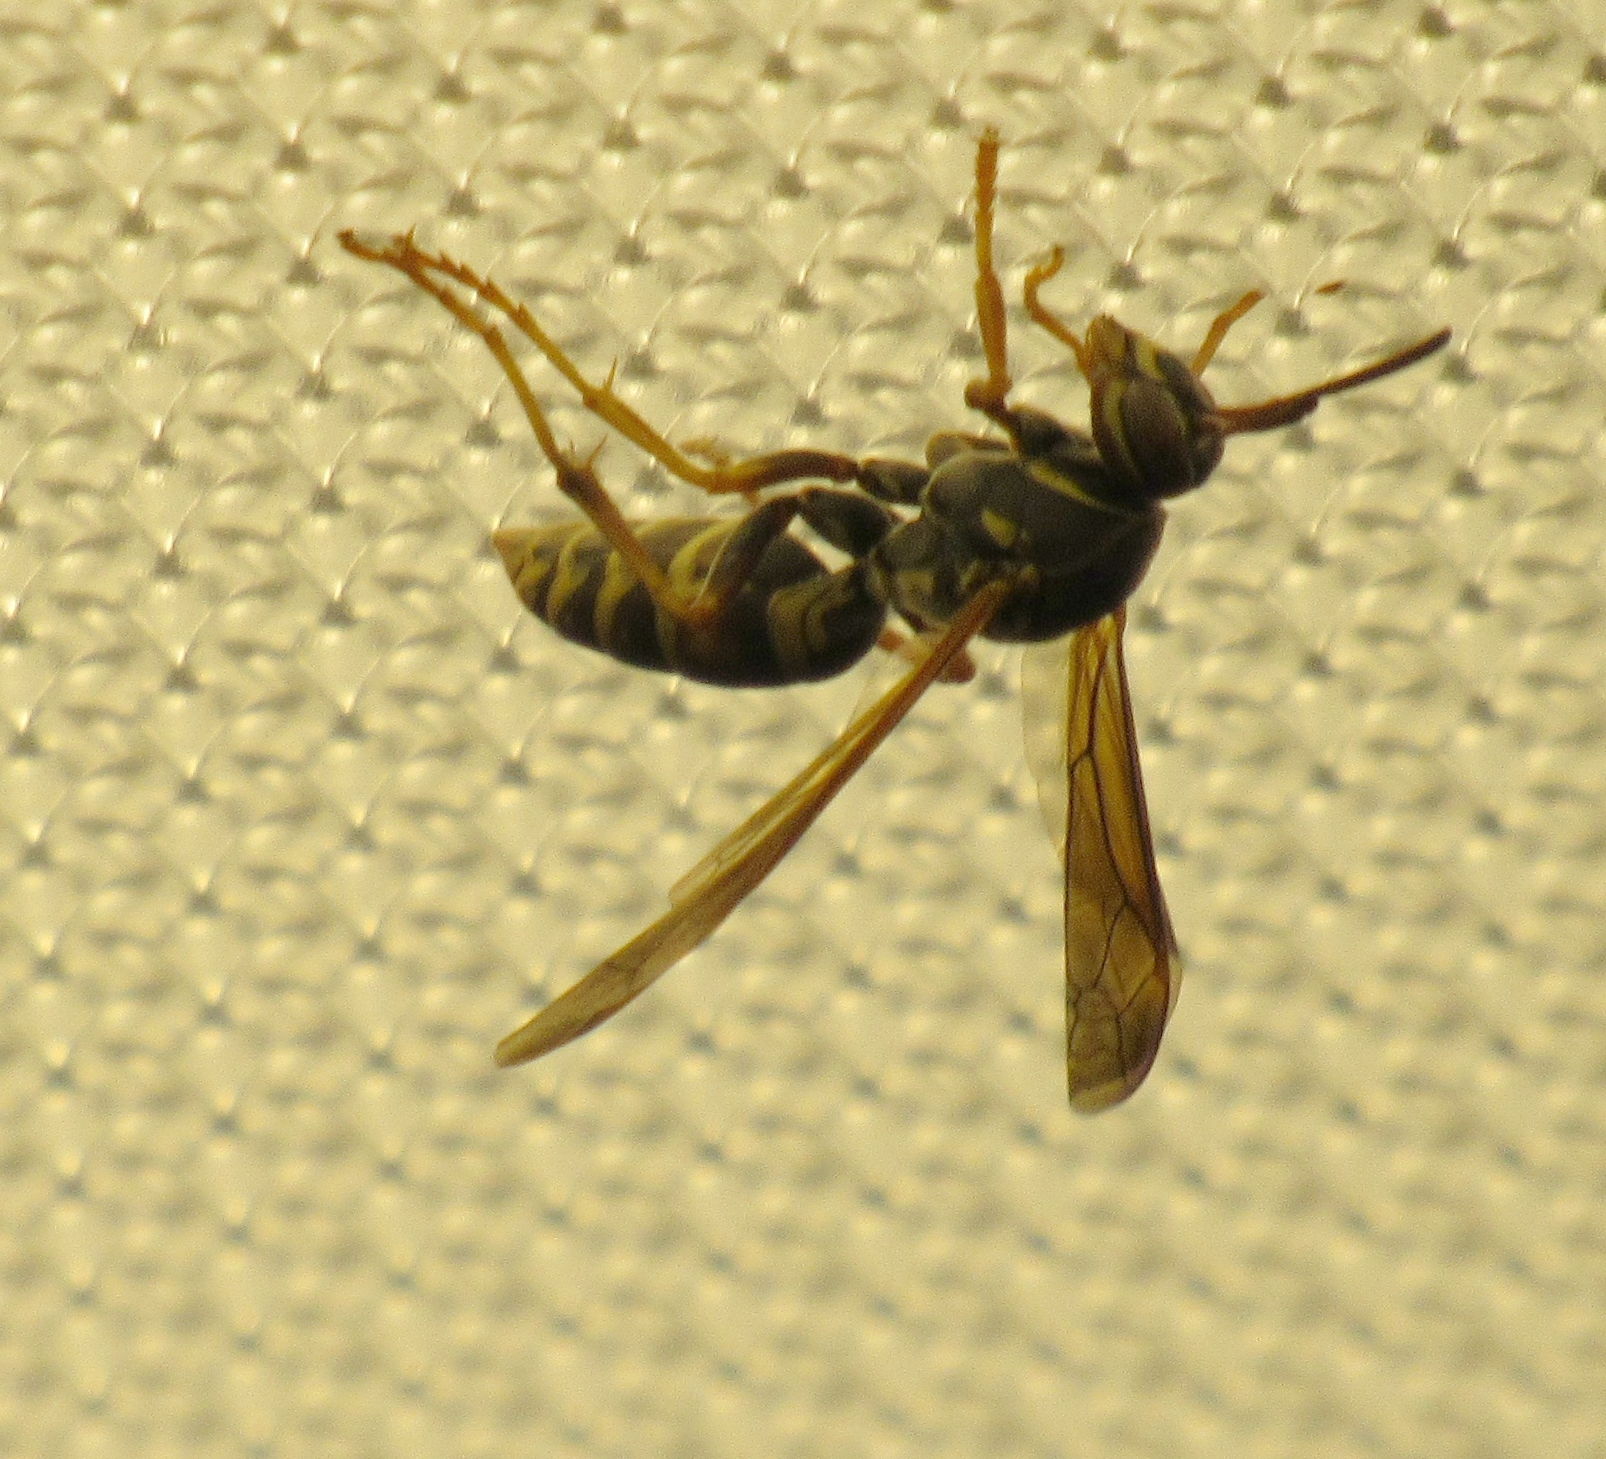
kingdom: Animalia
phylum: Arthropoda
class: Insecta
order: Hymenoptera
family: Eumenidae
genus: Polistes
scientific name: Polistes fuscatus
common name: Dark paper wasp
